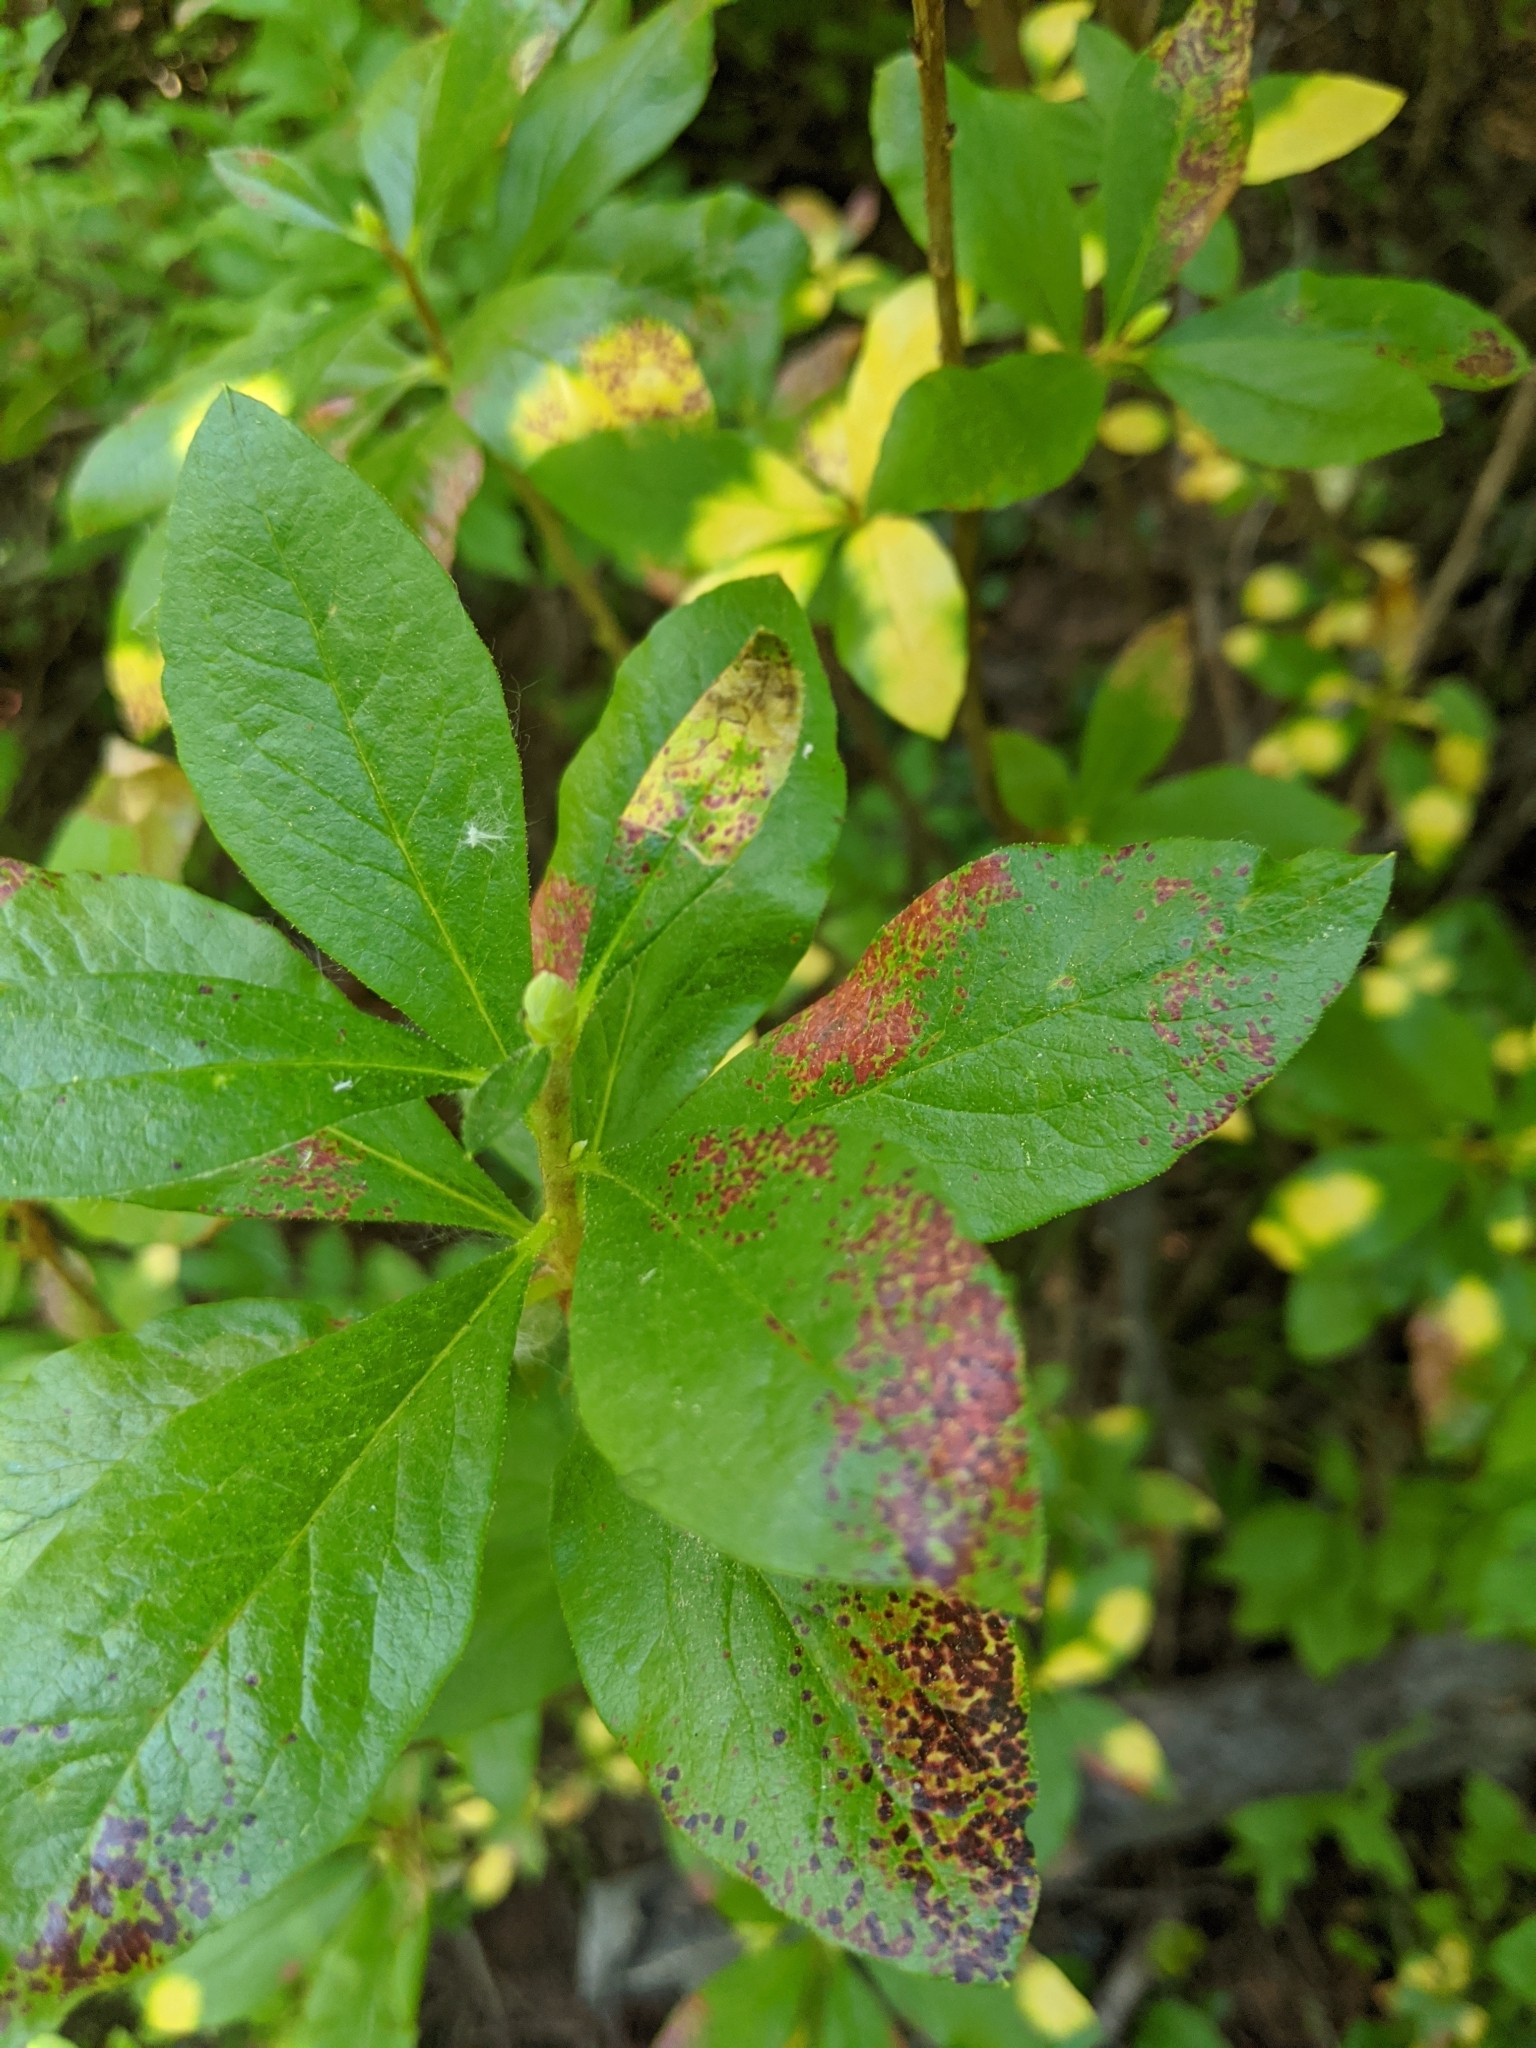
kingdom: Plantae
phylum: Tracheophyta
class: Magnoliopsida
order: Ericales
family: Ericaceae
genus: Rhododendron
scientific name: Rhododendron albiflorum
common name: White rhododendron
